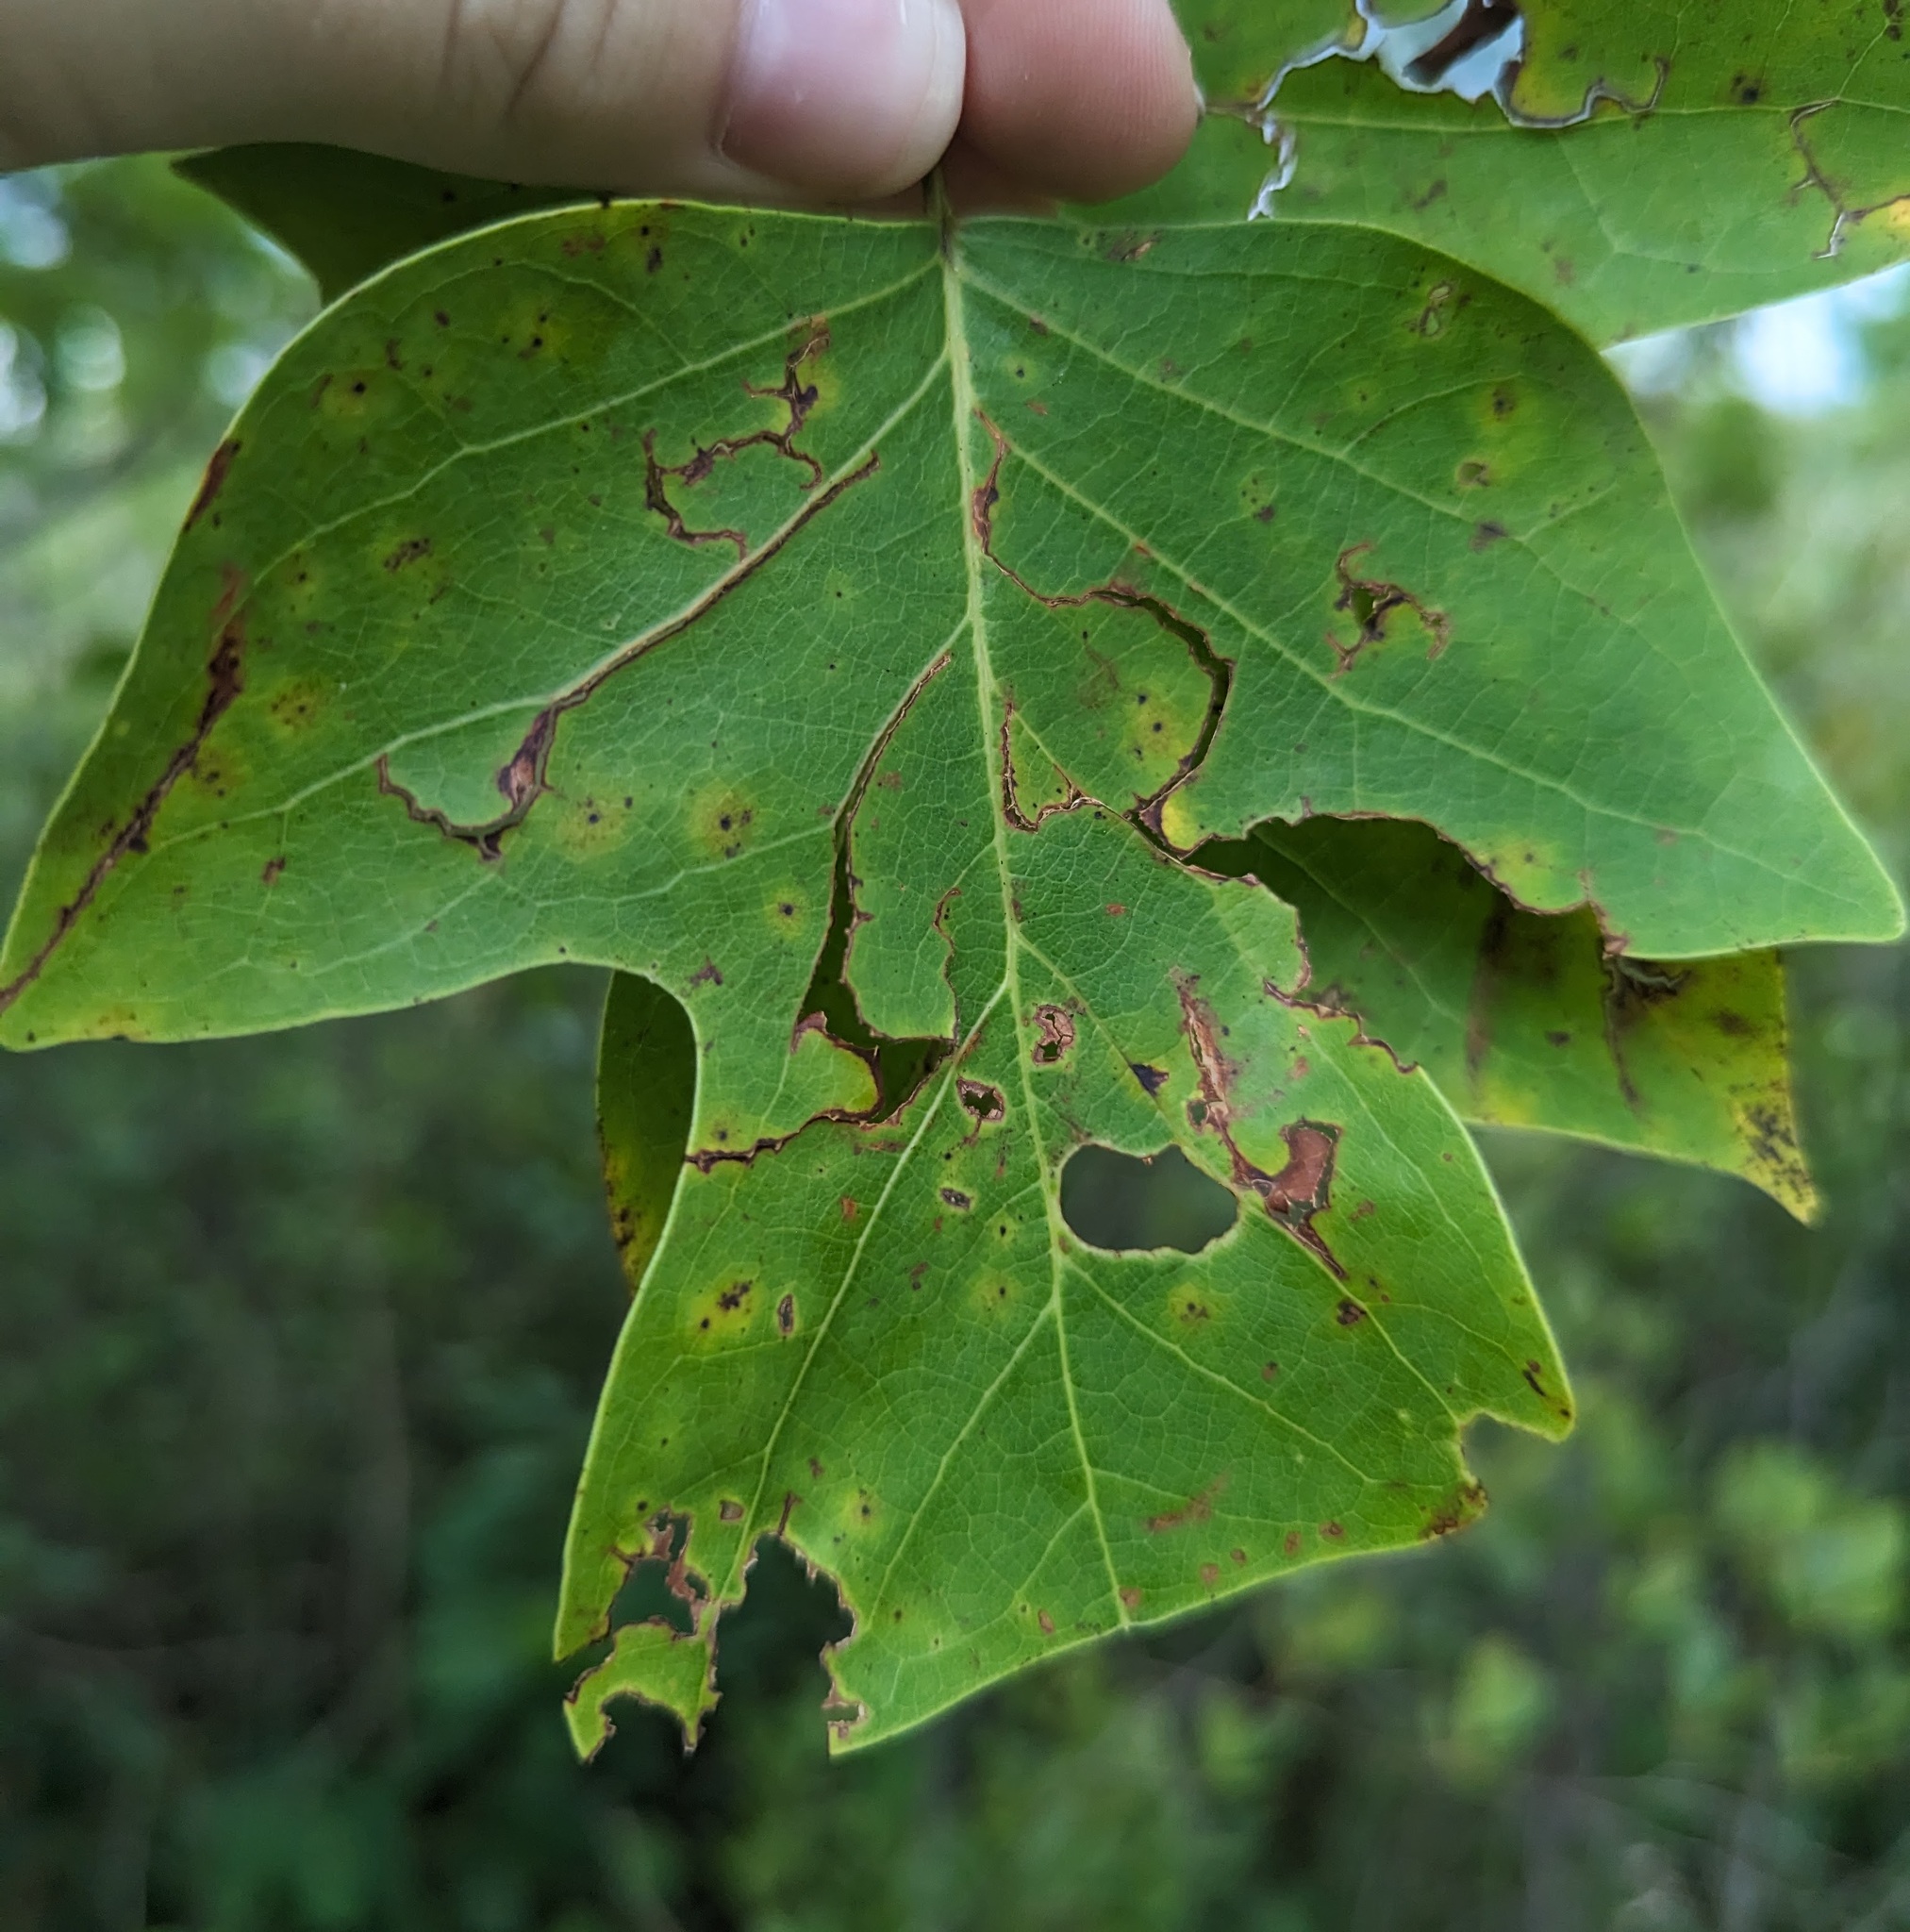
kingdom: Plantae
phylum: Tracheophyta
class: Magnoliopsida
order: Magnoliales
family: Magnoliaceae
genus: Liriodendron
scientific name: Liriodendron tulipifera
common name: Tulip tree
